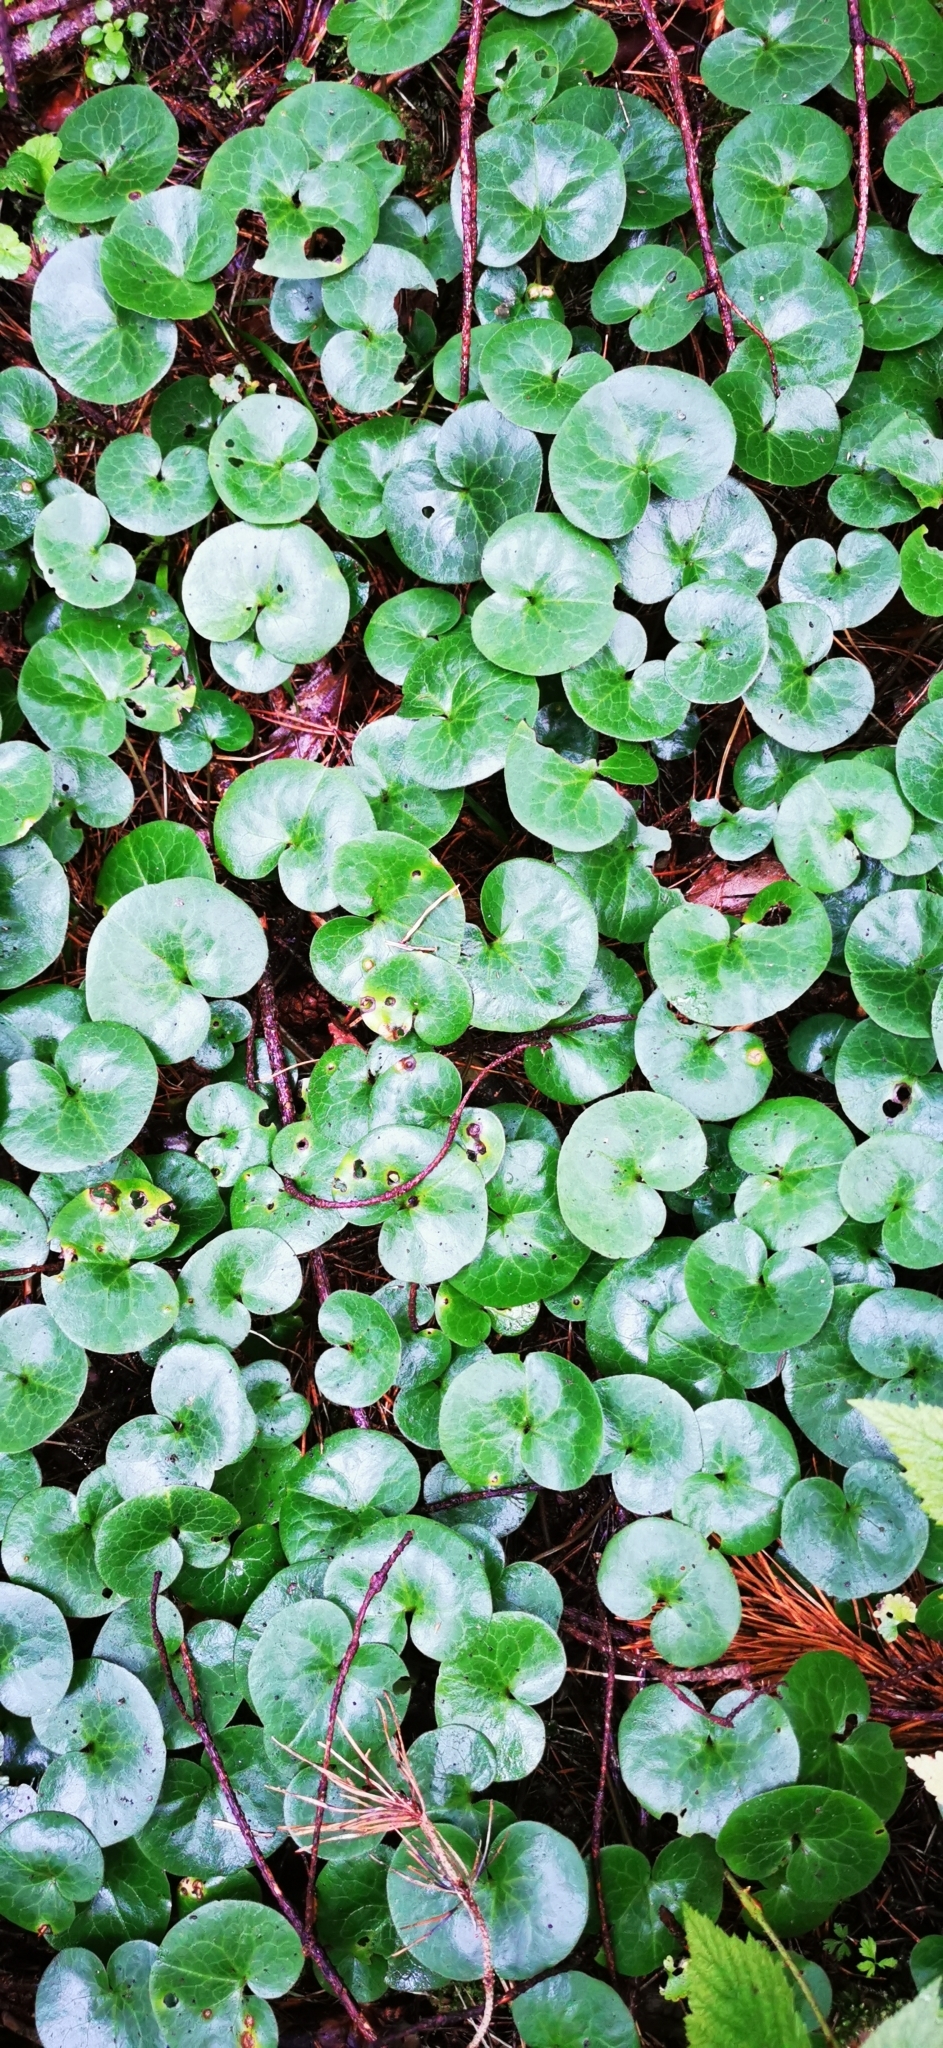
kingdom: Plantae
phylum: Tracheophyta
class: Magnoliopsida
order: Piperales
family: Aristolochiaceae
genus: Asarum
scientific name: Asarum europaeum
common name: Asarabacca
